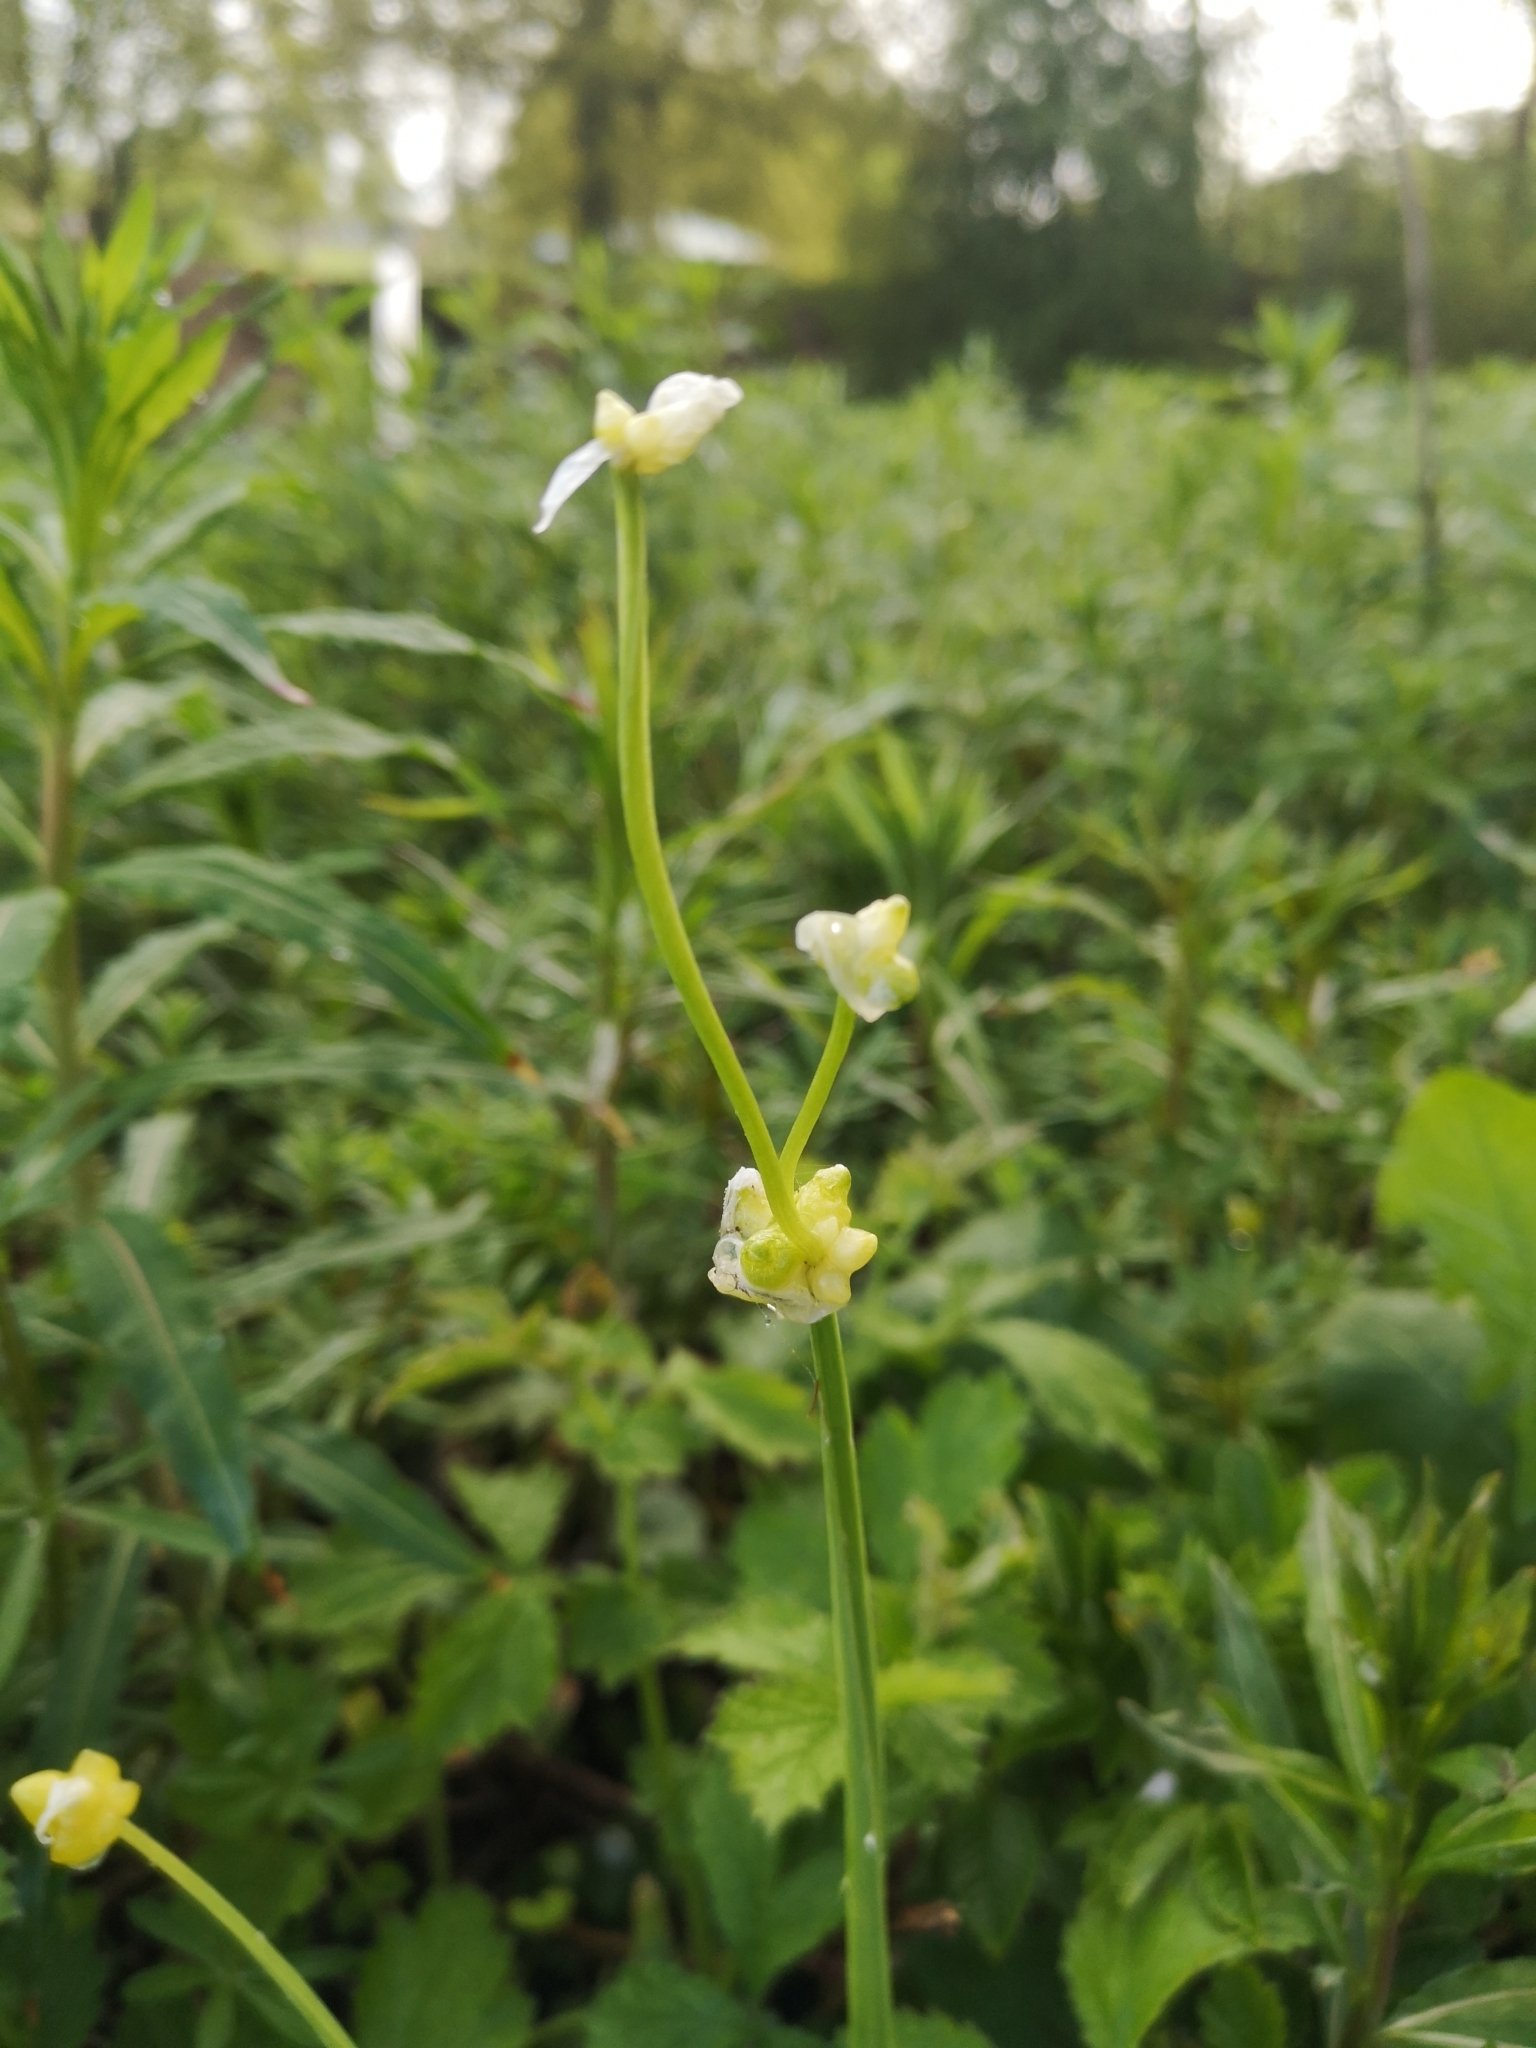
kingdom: Plantae
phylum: Tracheophyta
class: Liliopsida
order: Asparagales
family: Amaryllidaceae
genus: Allium
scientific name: Allium paradoxum
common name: Few-flowered garlic
